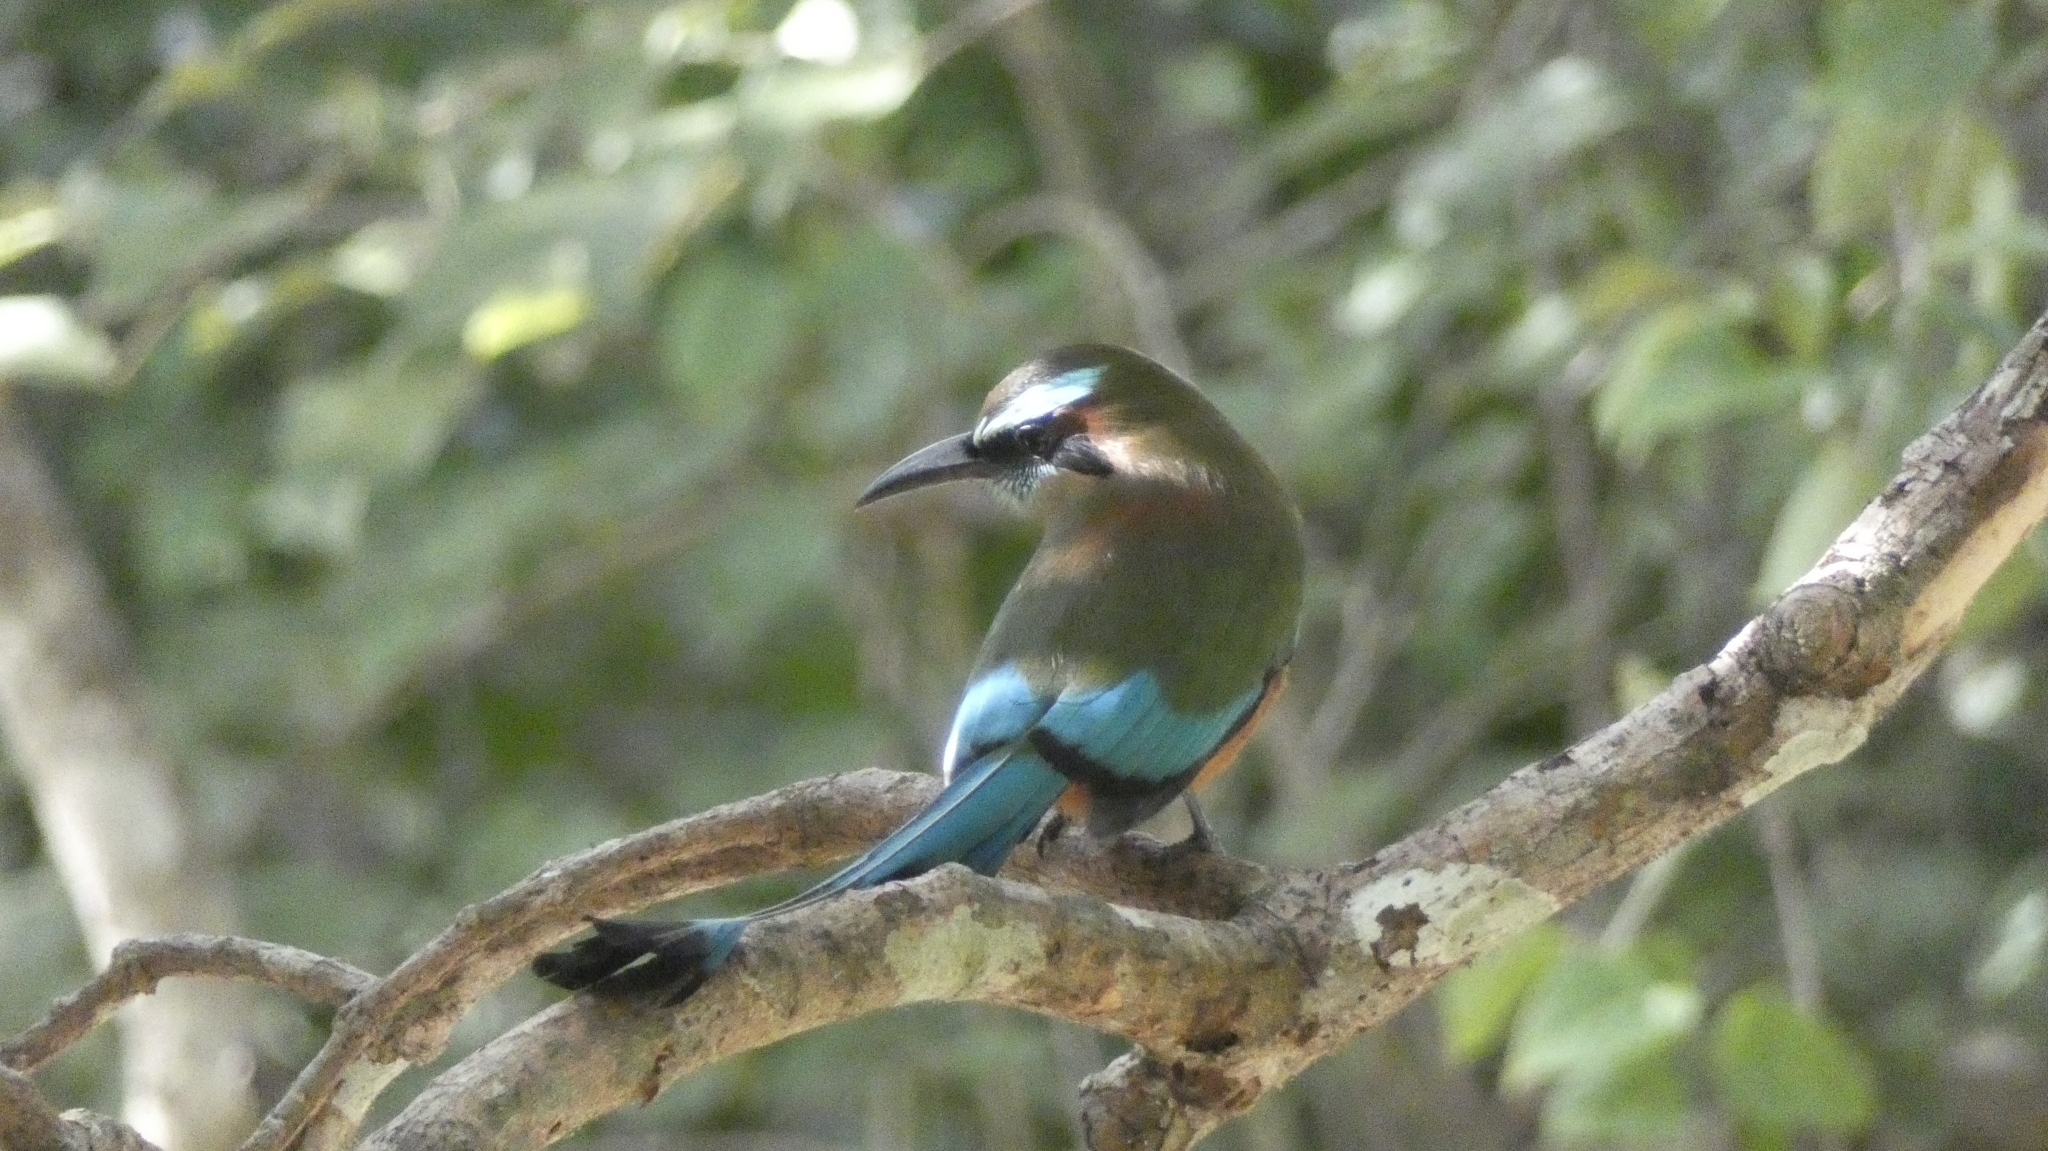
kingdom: Animalia
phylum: Chordata
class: Aves
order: Coraciiformes
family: Momotidae
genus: Eumomota
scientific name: Eumomota superciliosa
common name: Turquoise-browed motmot
